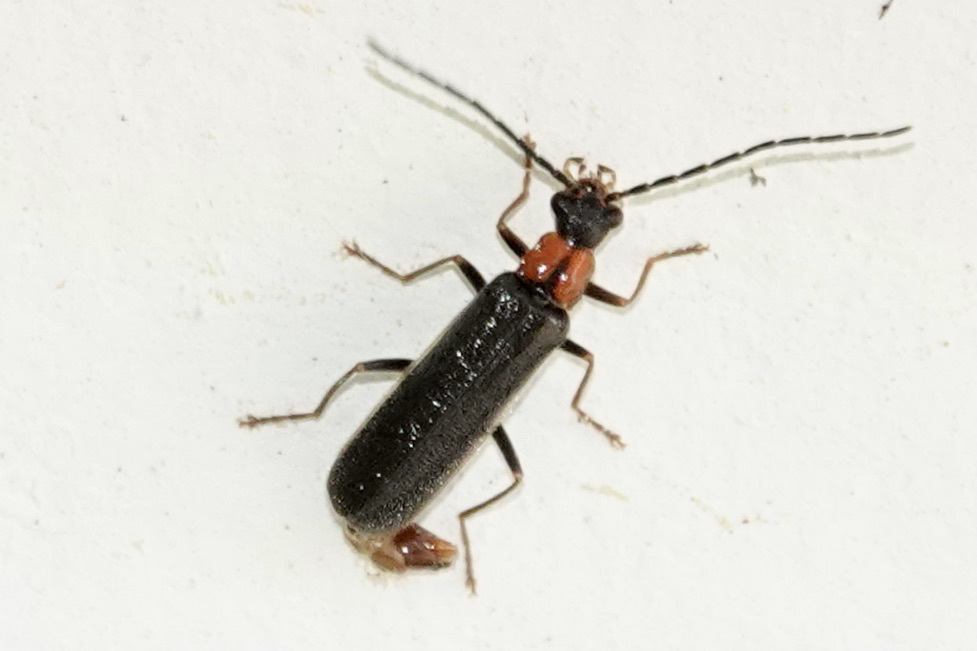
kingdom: Animalia
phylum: Arthropoda
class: Insecta
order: Coleoptera
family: Cantharidae
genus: Rhagonycha
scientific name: Rhagonycha excavata
